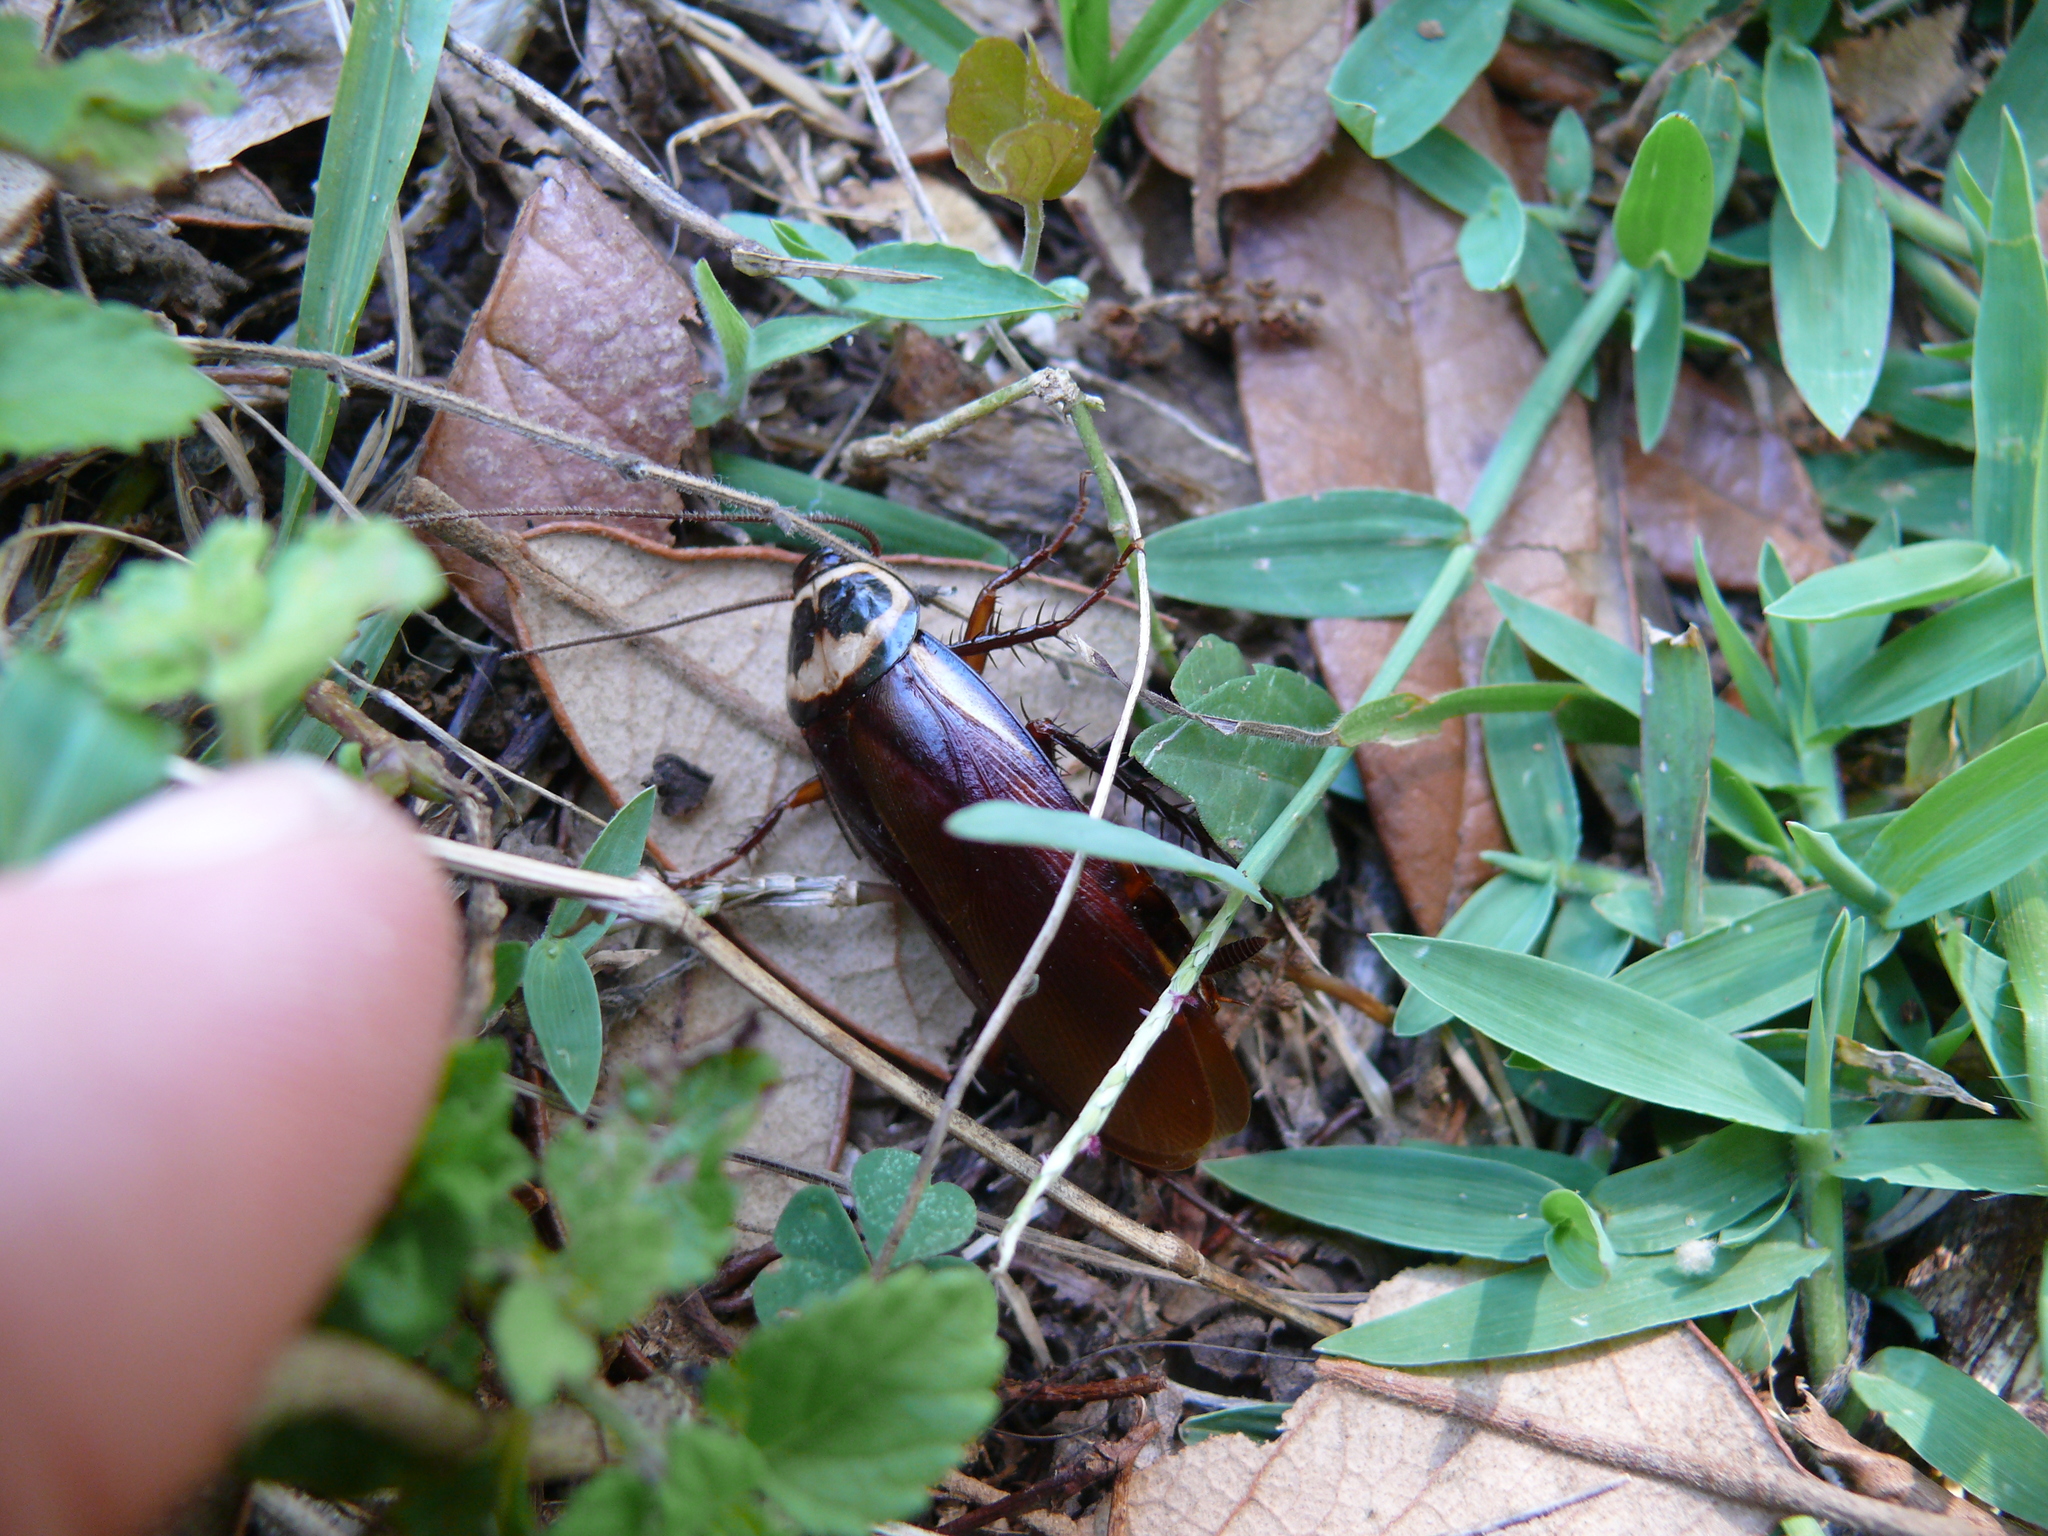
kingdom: Animalia
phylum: Arthropoda
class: Insecta
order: Blattodea
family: Blattidae
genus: Periplaneta
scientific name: Periplaneta australasiae
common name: Australian cockroach
